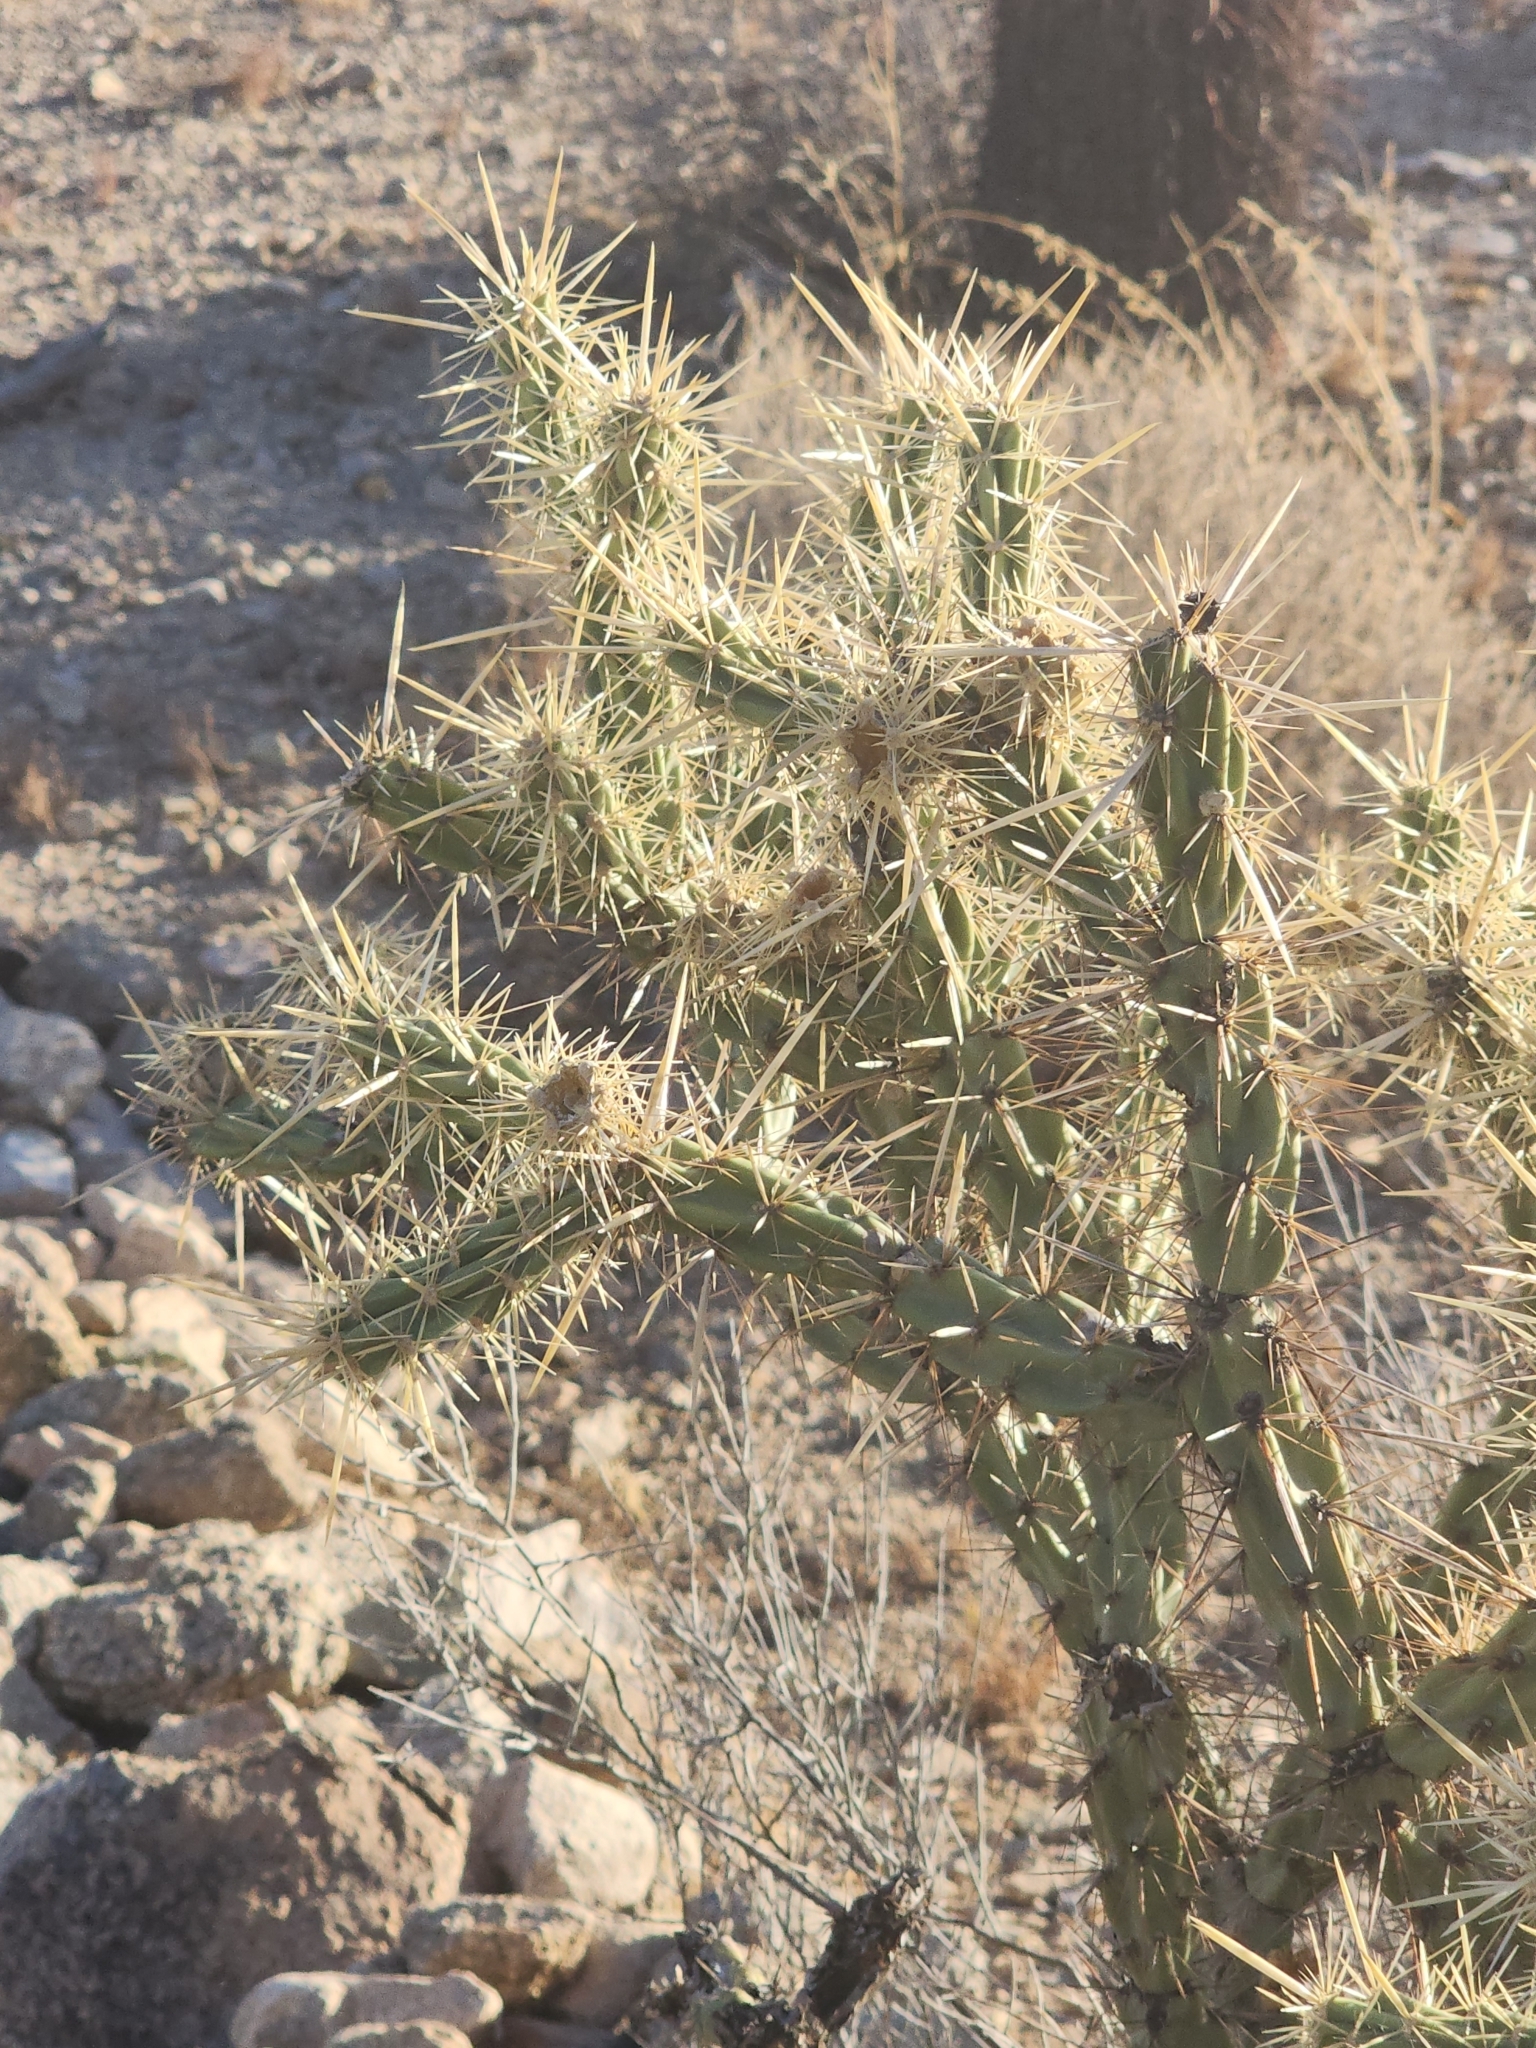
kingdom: Plantae
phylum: Tracheophyta
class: Magnoliopsida
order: Caryophyllales
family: Cactaceae
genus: Cylindropuntia
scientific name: Cylindropuntia acanthocarpa
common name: Buckhorn cholla
